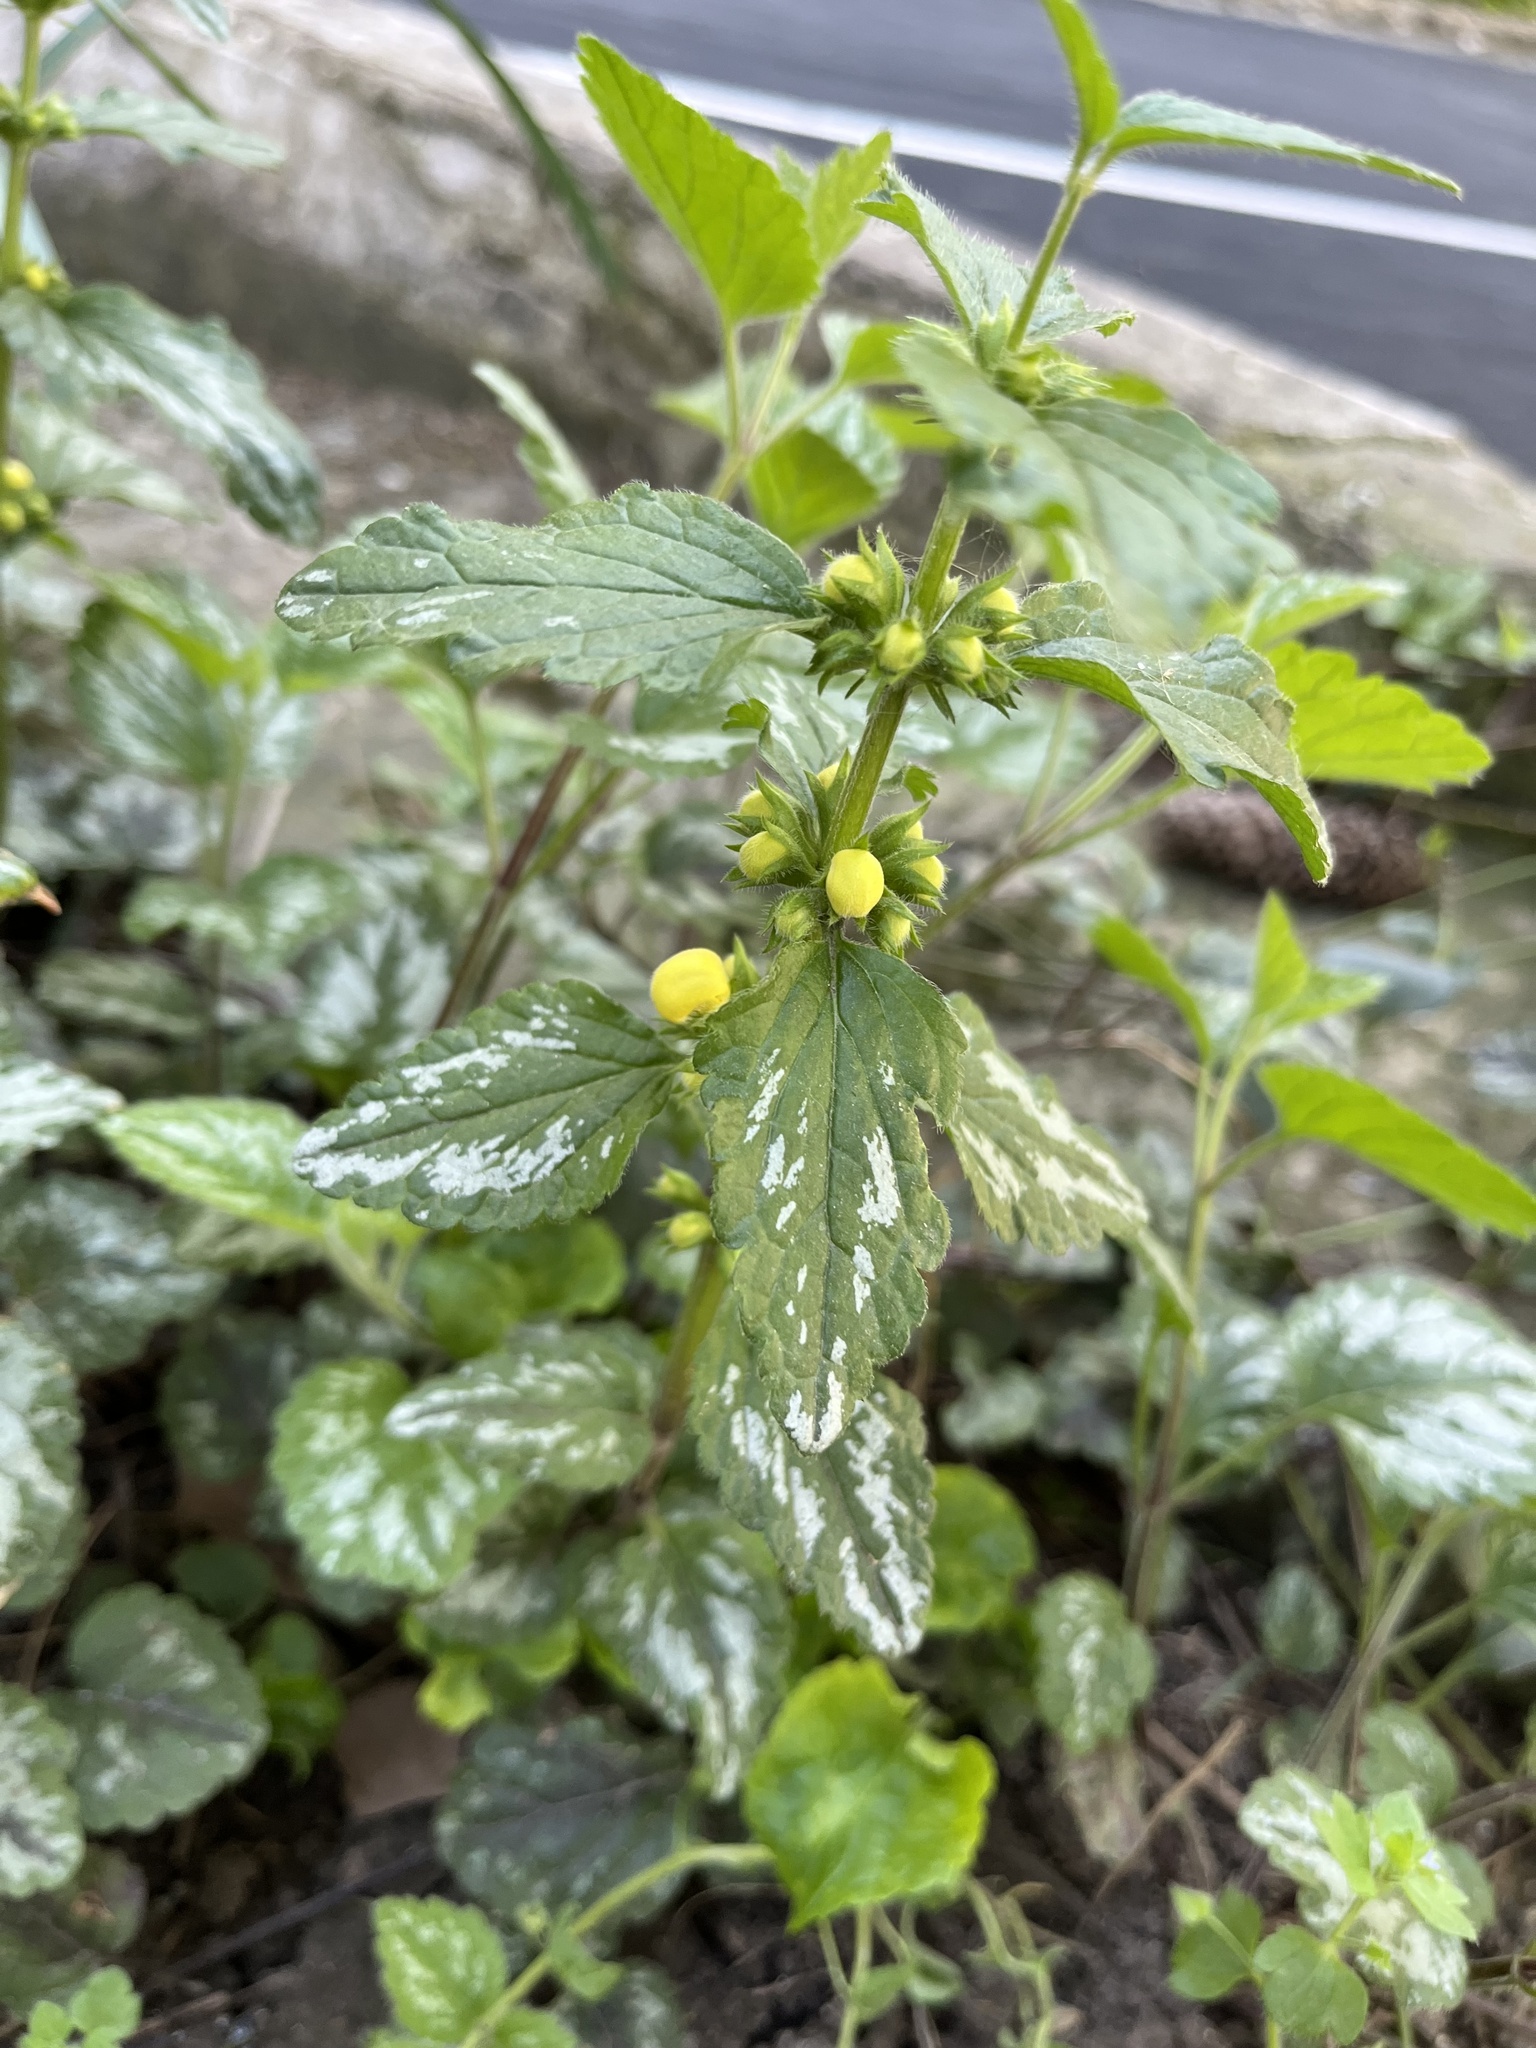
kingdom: Plantae
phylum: Tracheophyta
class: Magnoliopsida
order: Lamiales
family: Lamiaceae
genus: Lamium
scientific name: Lamium galeobdolon
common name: Yellow archangel
